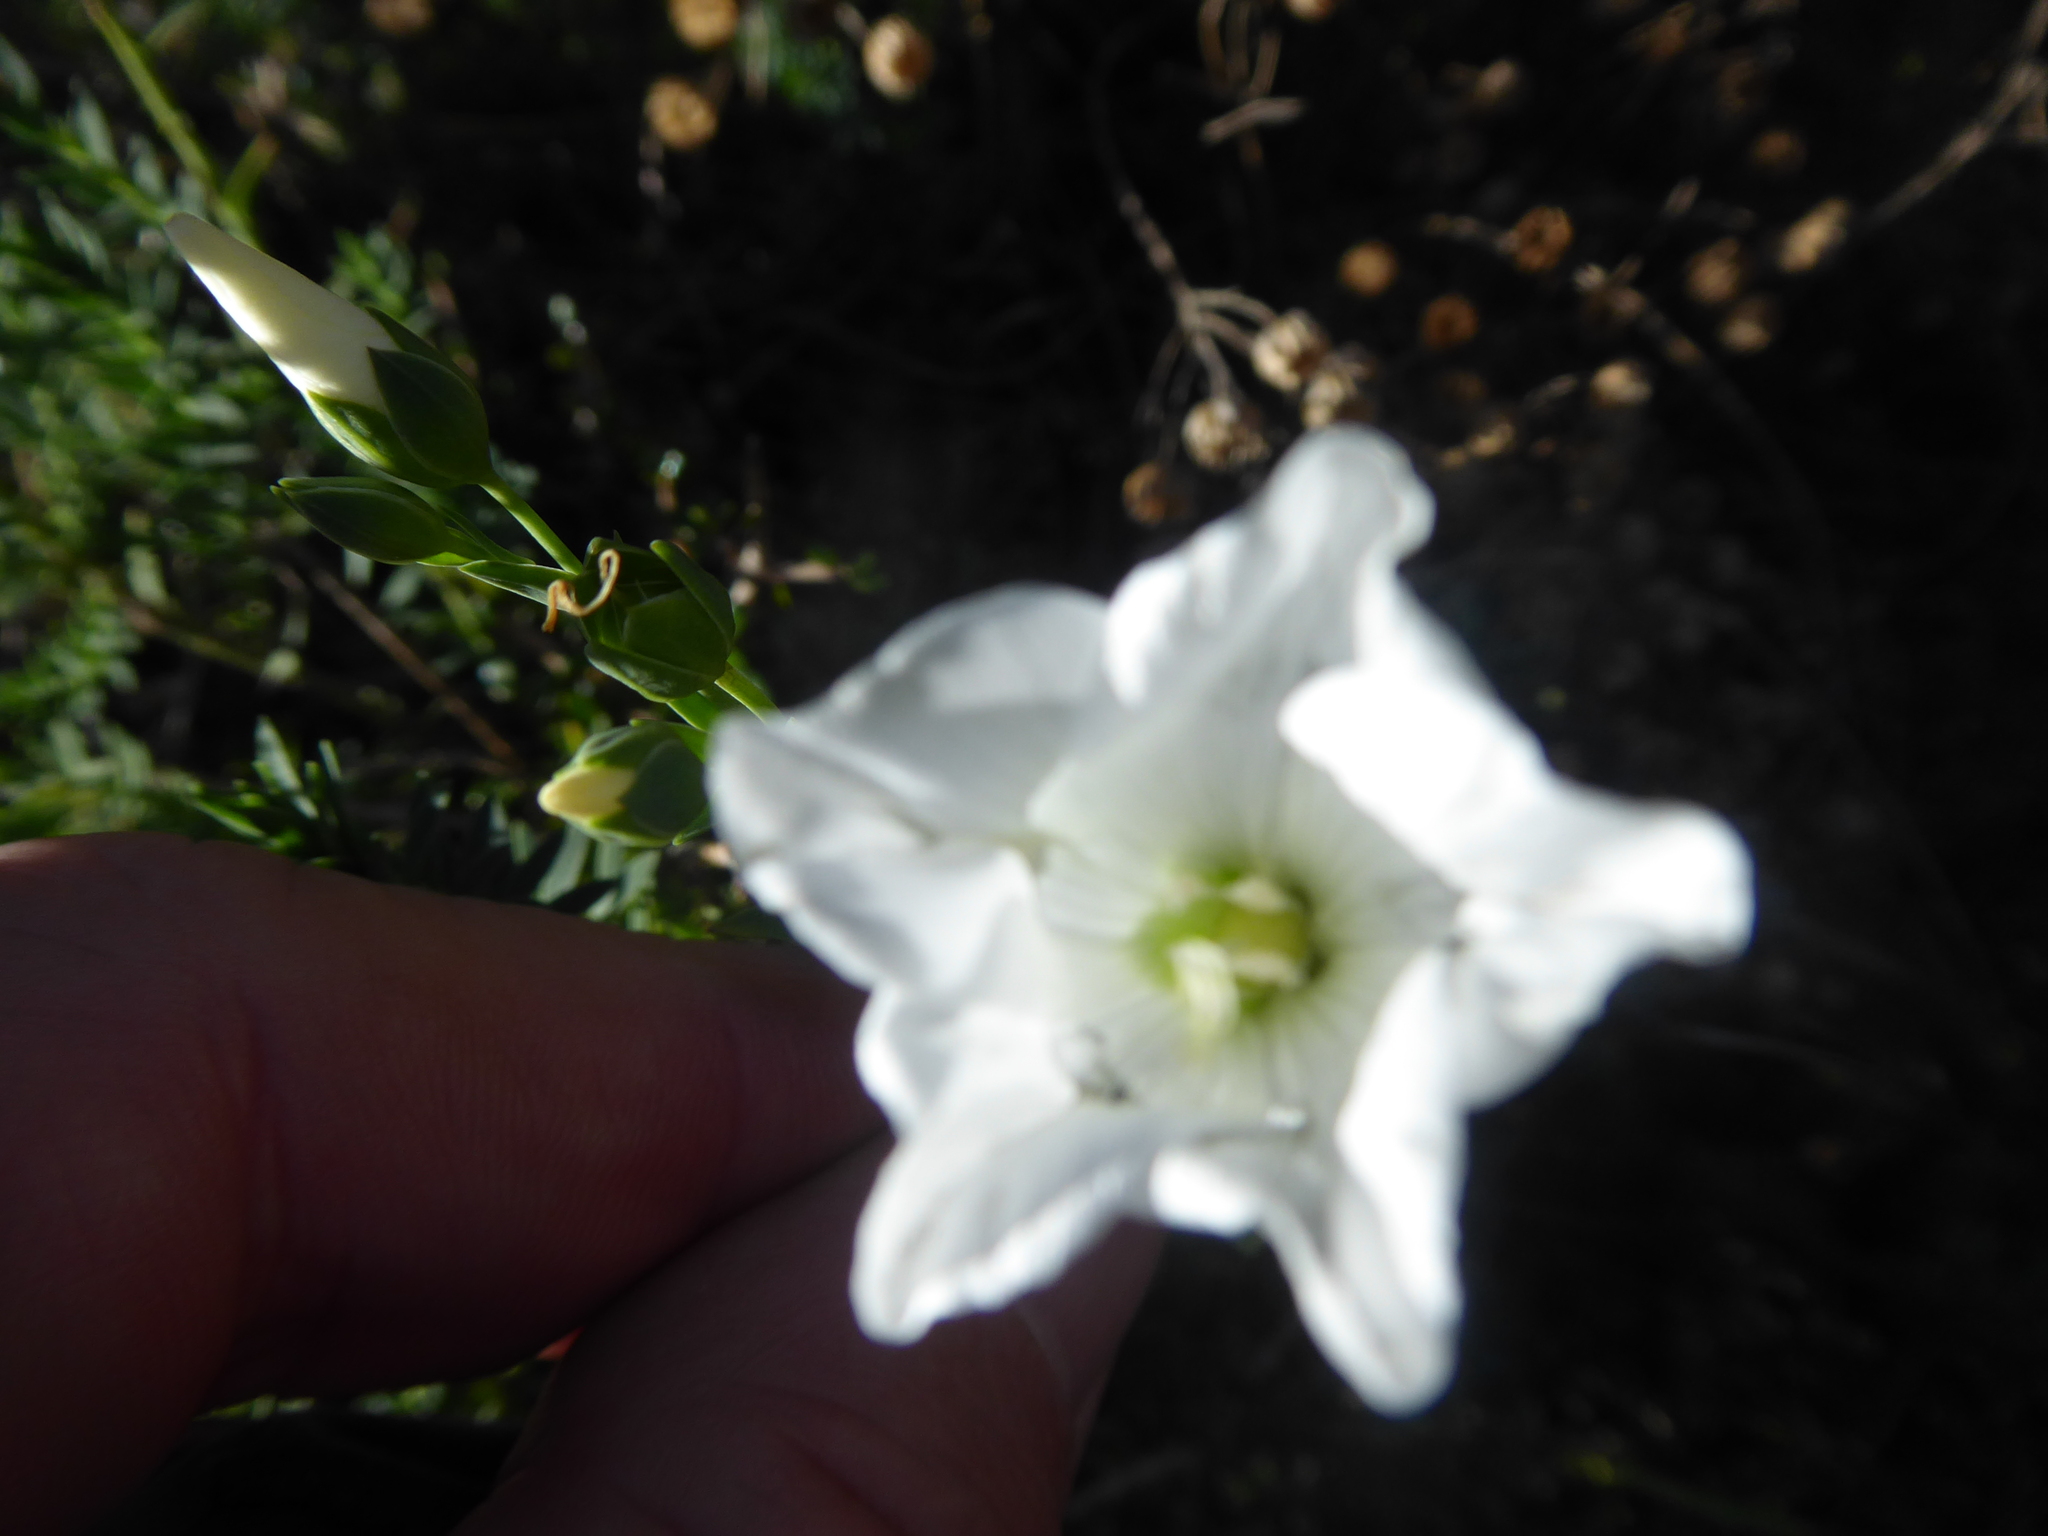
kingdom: Plantae
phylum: Tracheophyta
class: Magnoliopsida
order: Malpighiales
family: Linaceae
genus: Linum
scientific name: Linum monogynum
